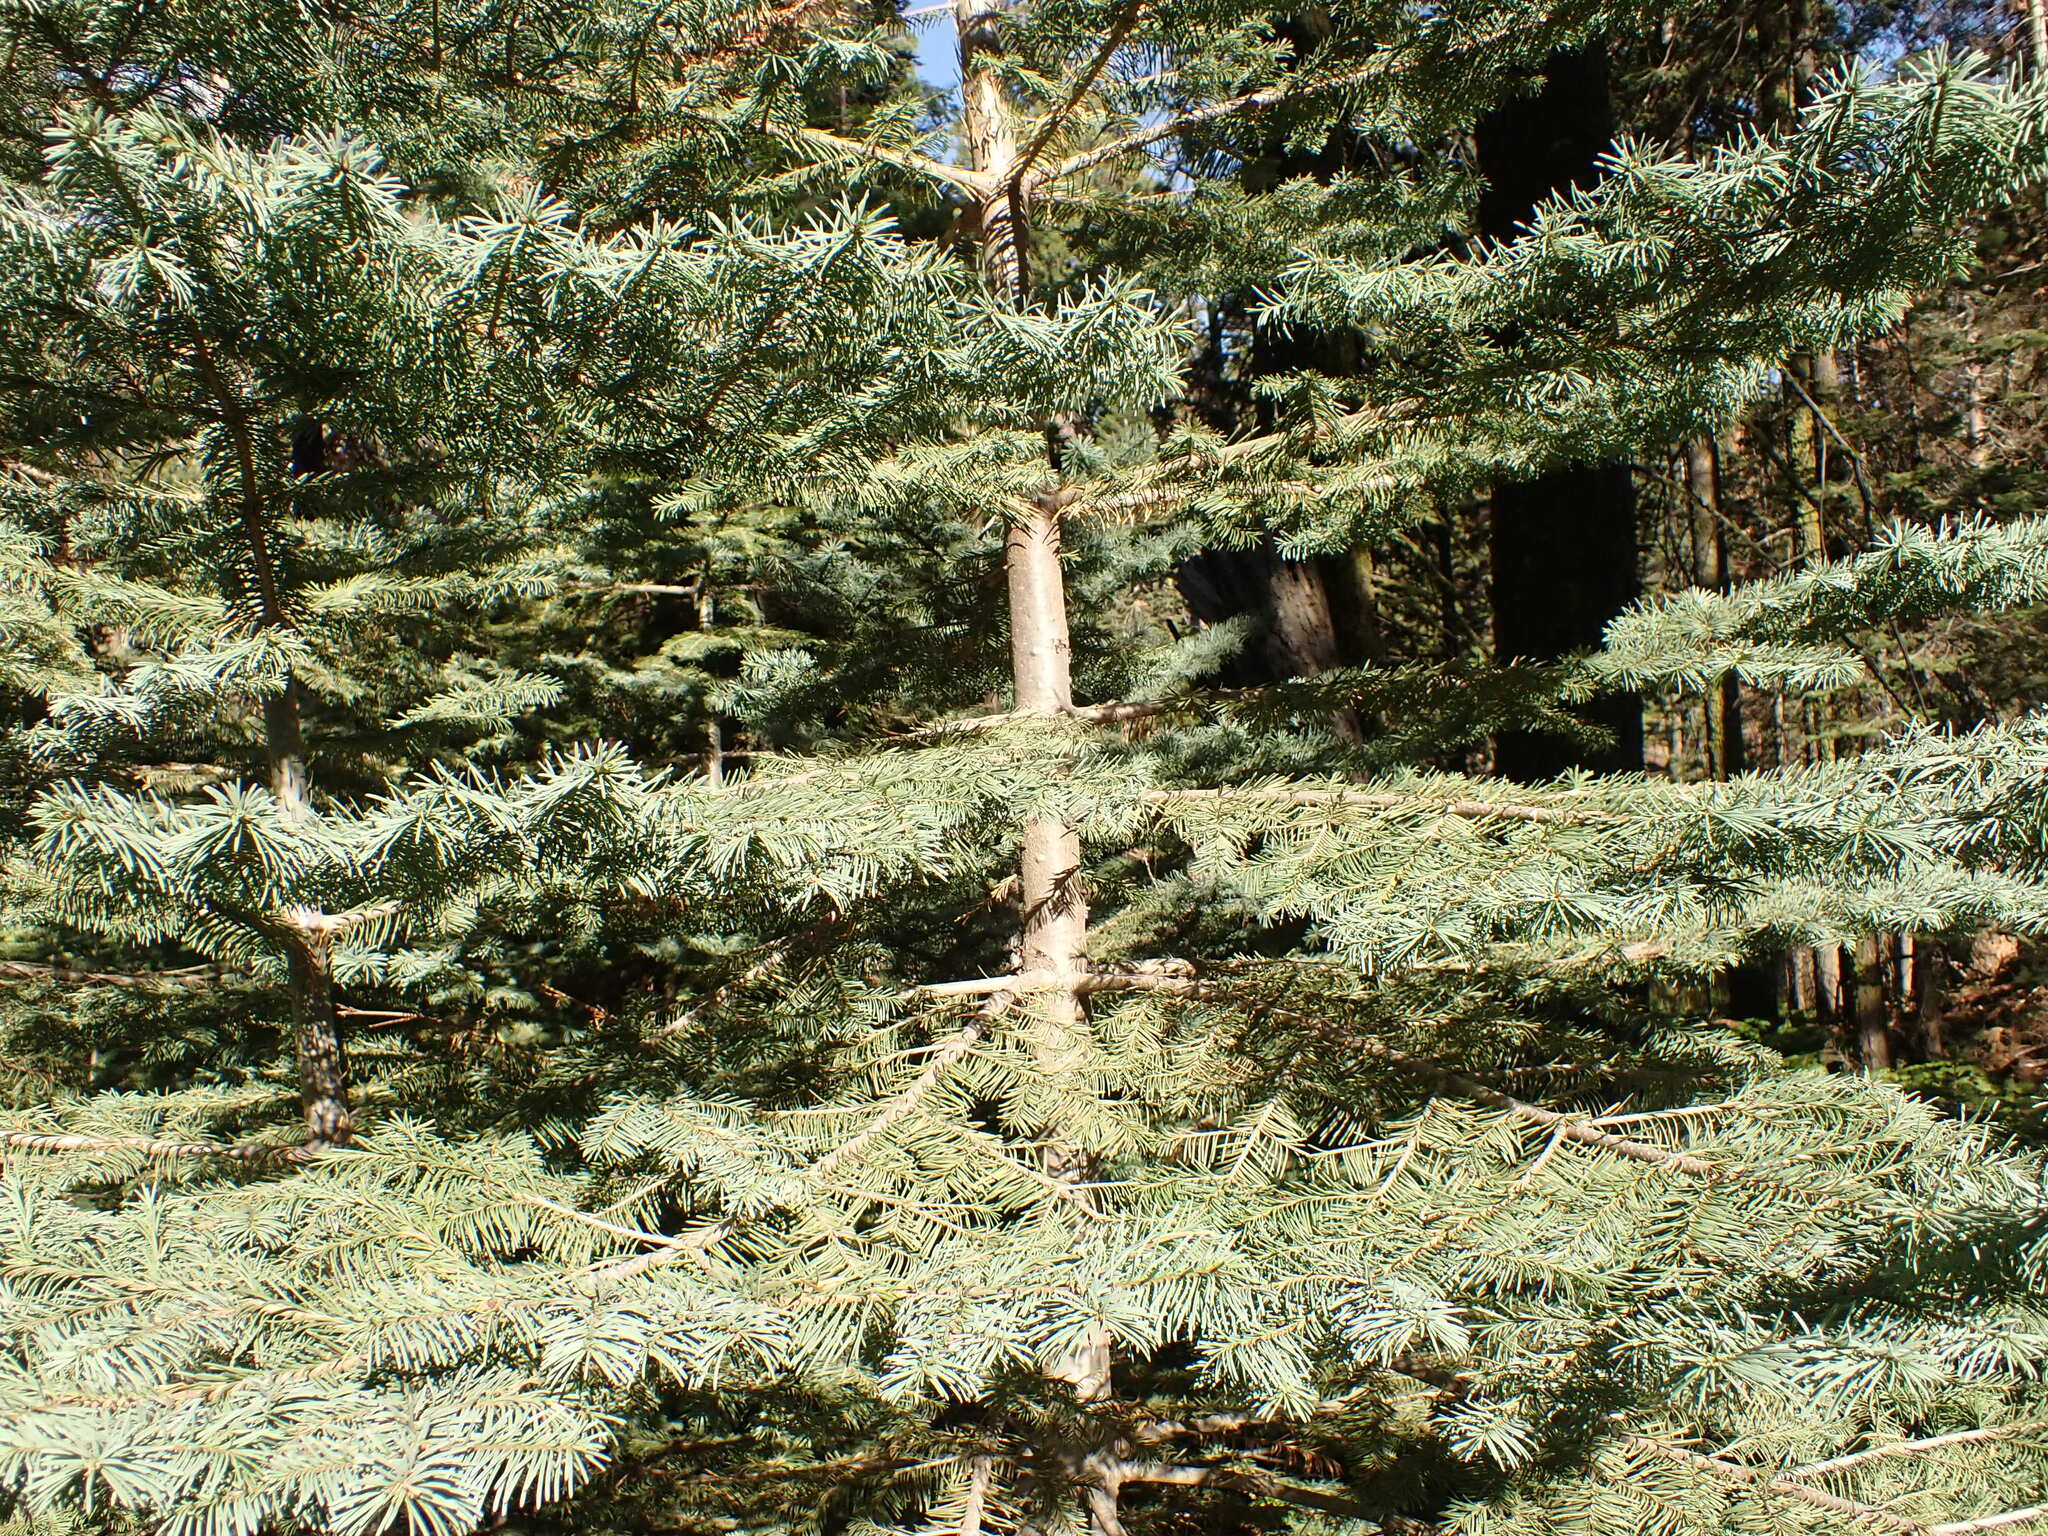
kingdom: Plantae
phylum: Tracheophyta
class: Pinopsida
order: Pinales
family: Pinaceae
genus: Abies
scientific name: Abies magnifica bis
